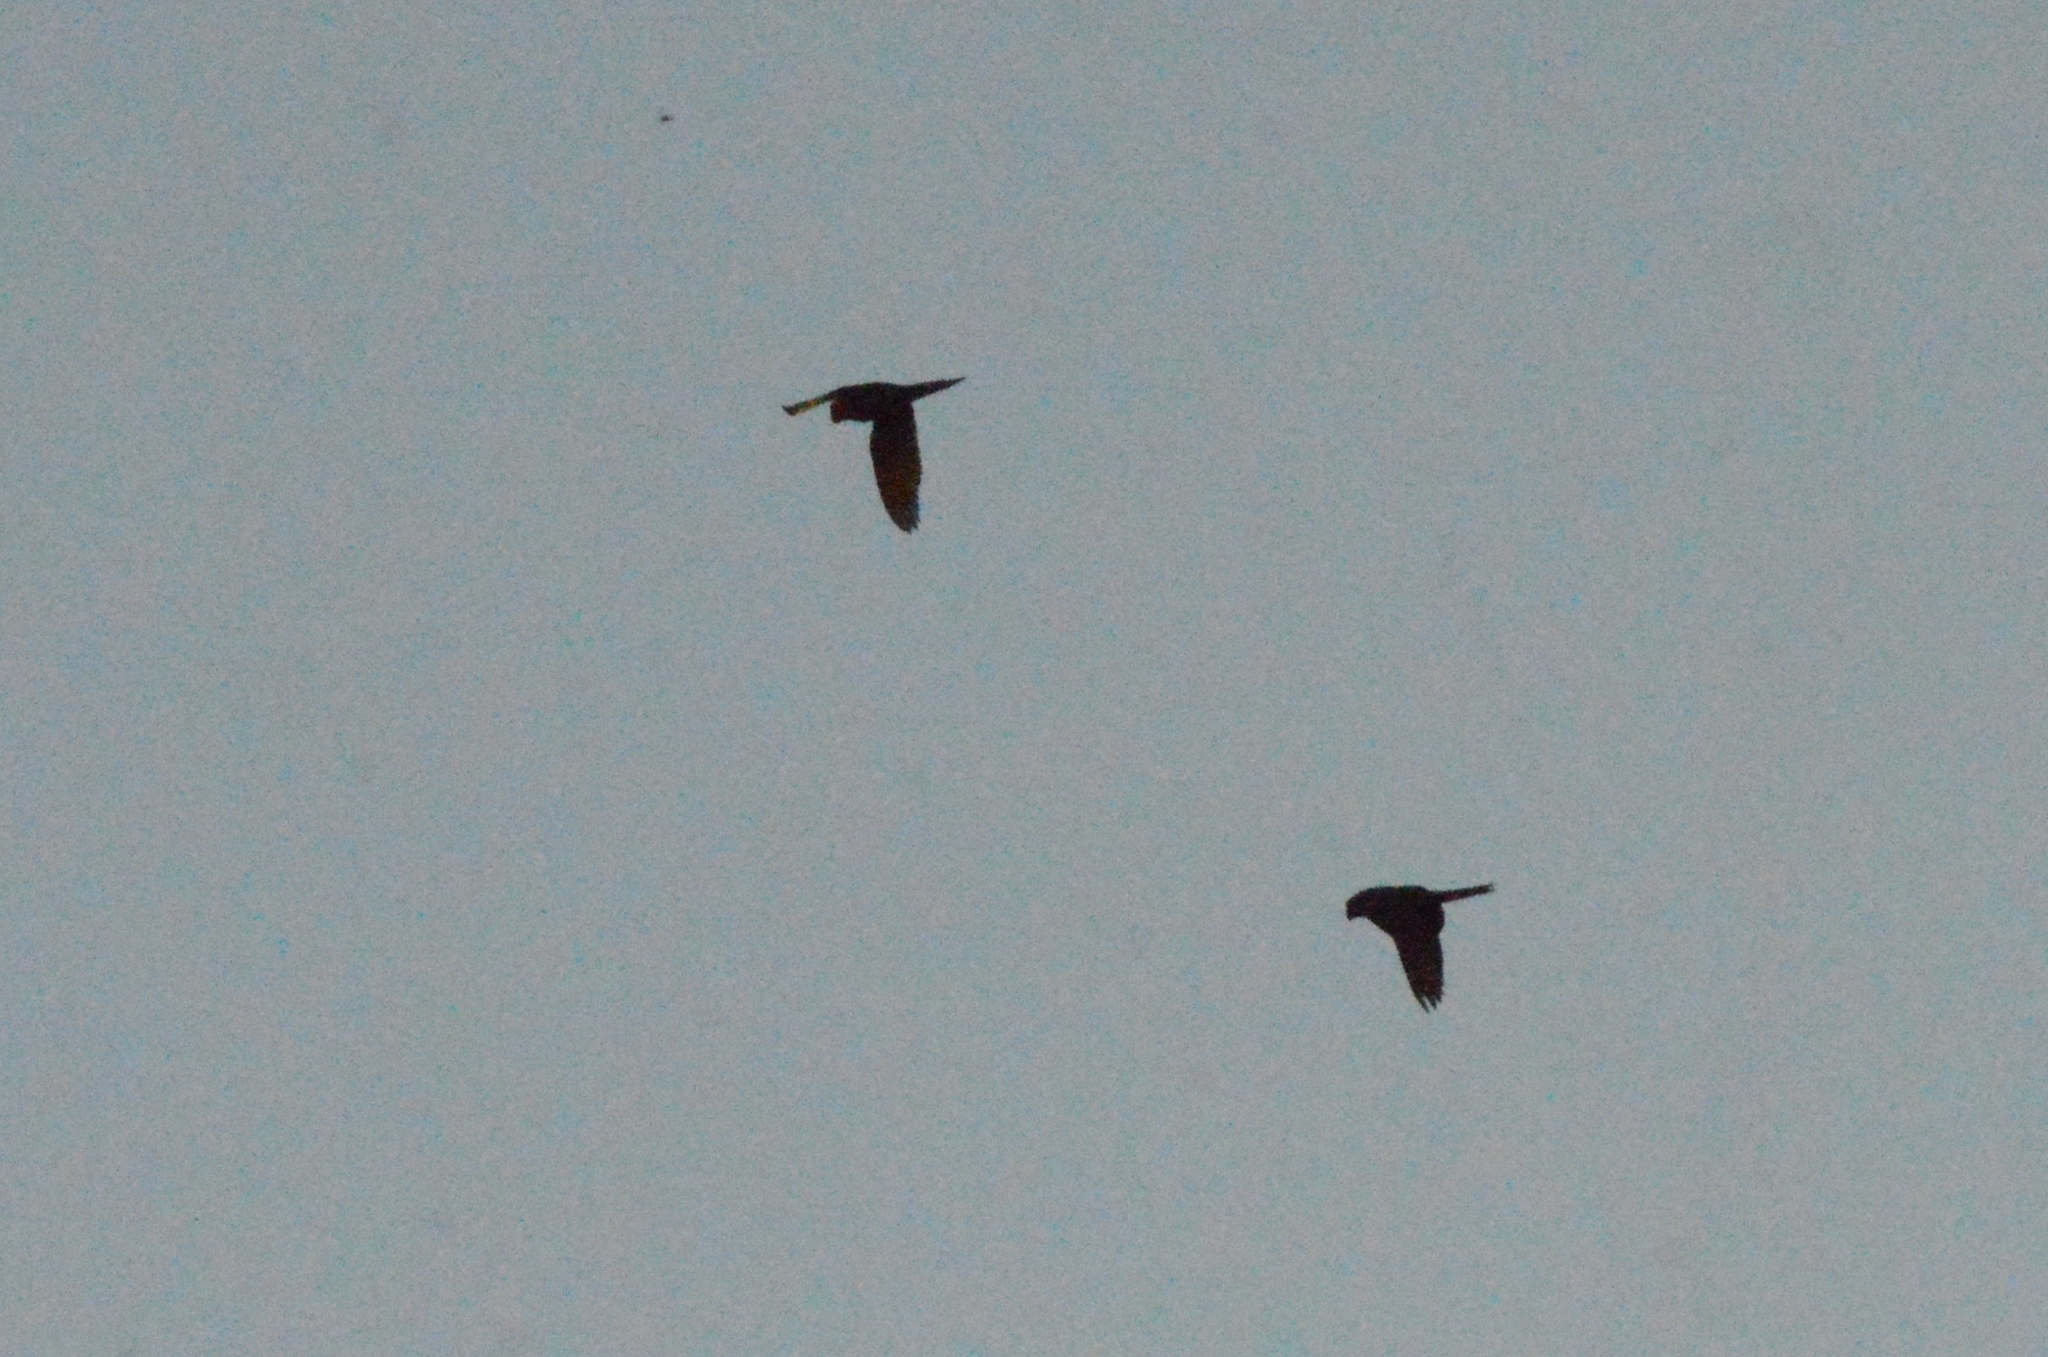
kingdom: Animalia
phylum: Chordata
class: Aves
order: Psittaciformes
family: Psittacidae
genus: Aratinga
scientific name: Aratinga leucophthalma
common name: White-eyed parakeet
